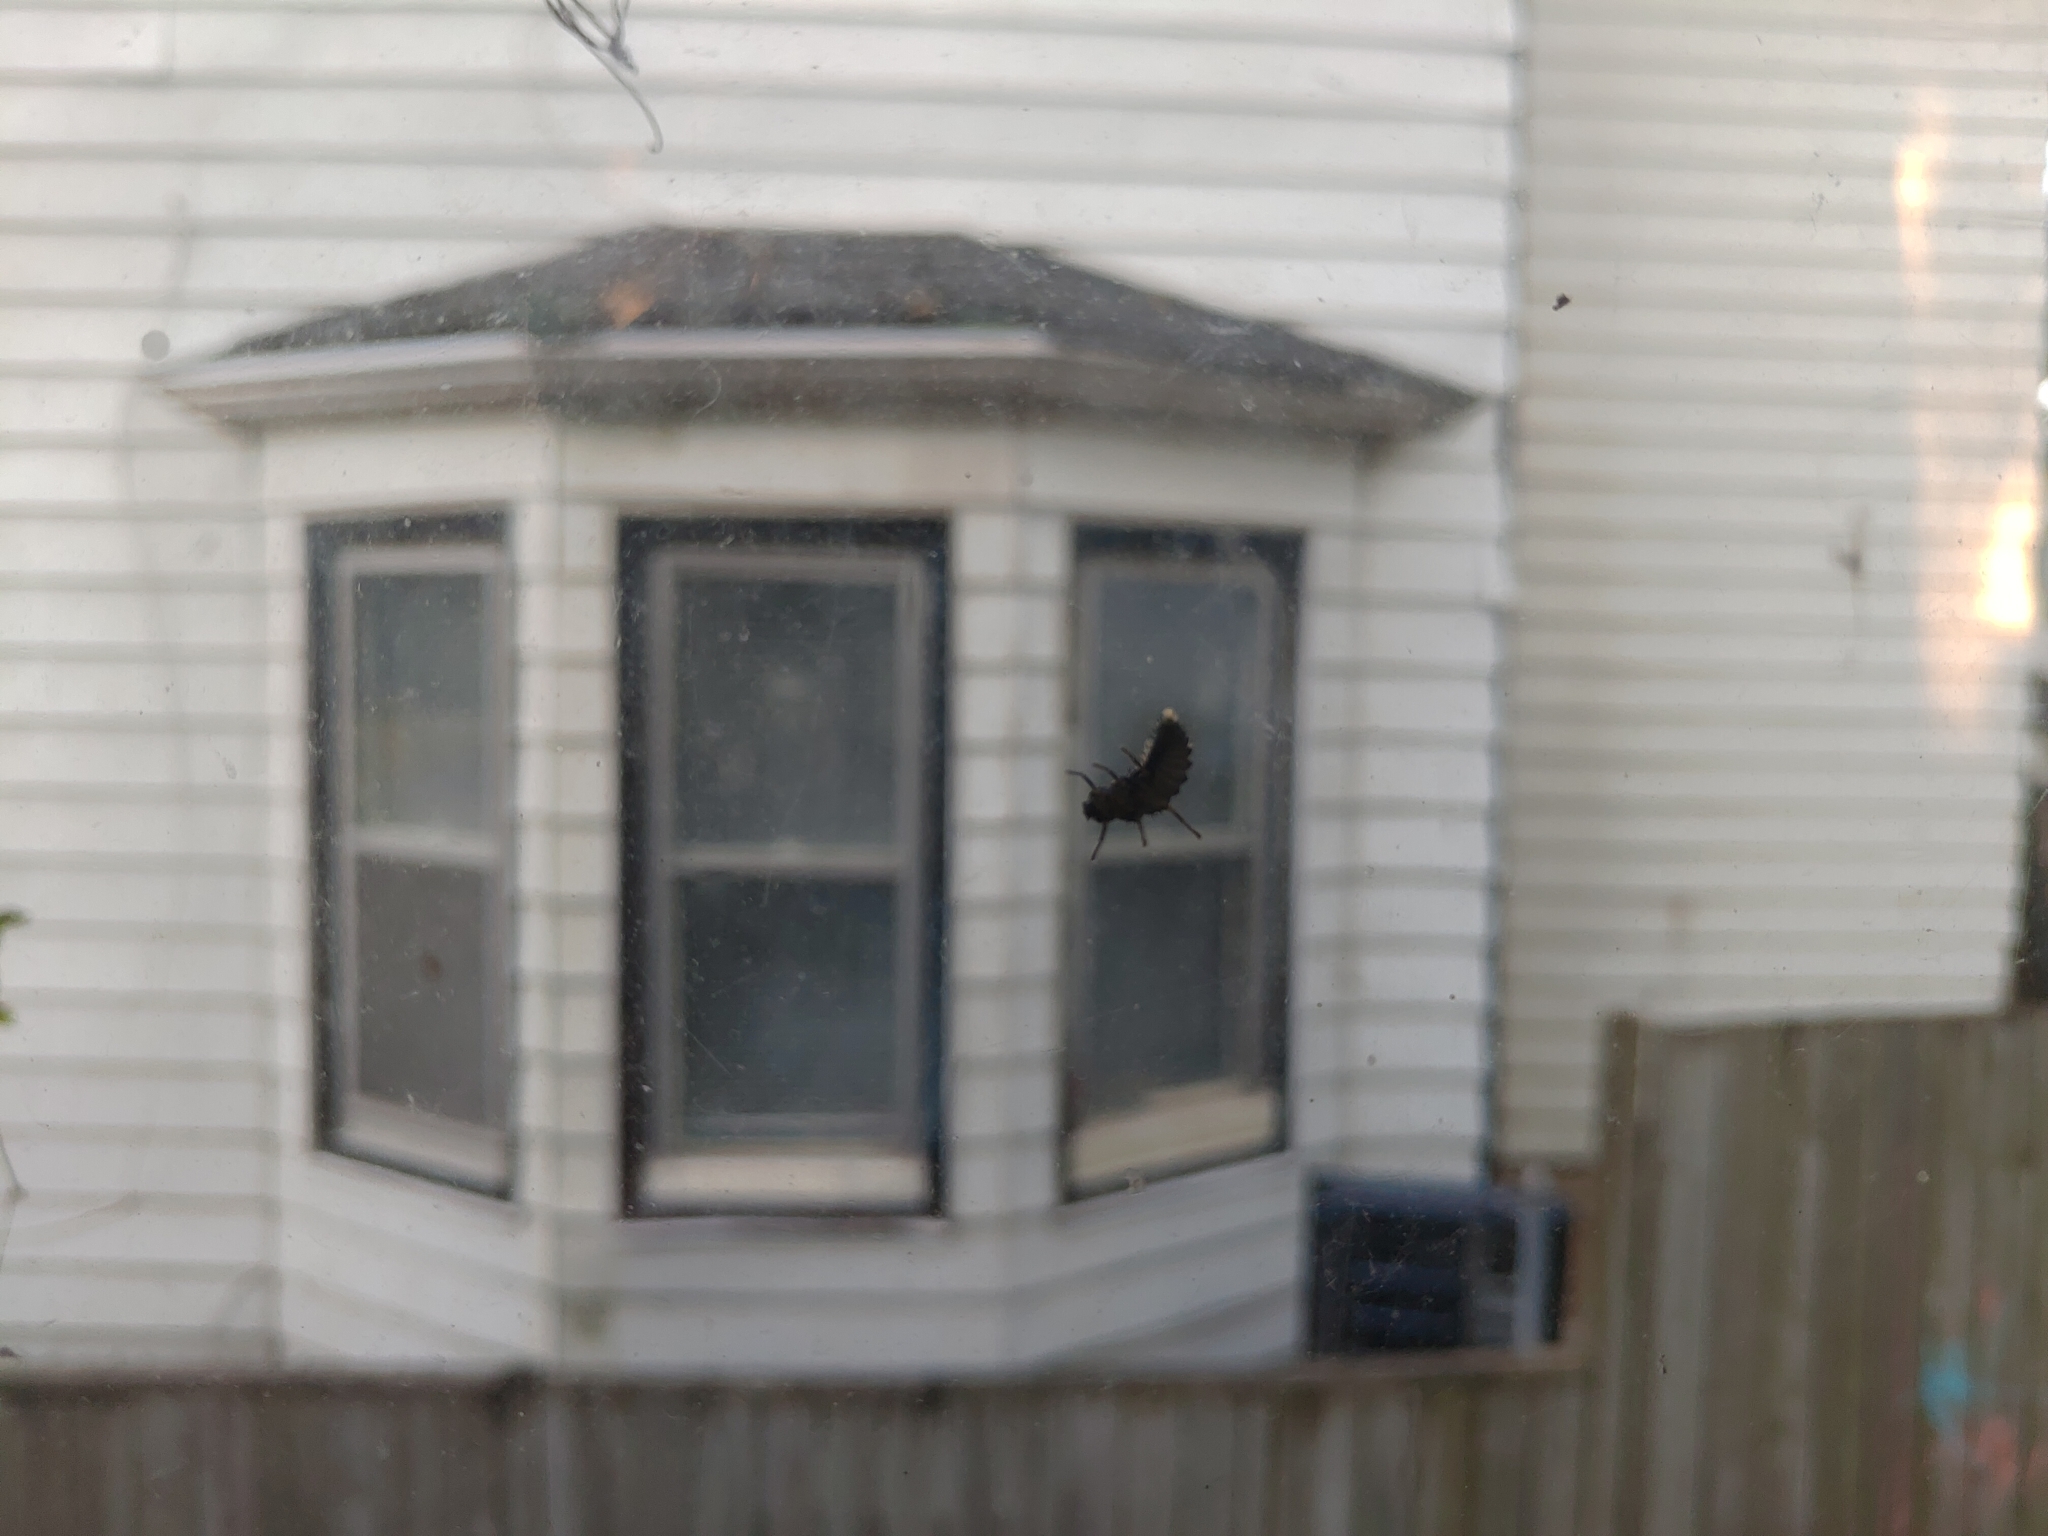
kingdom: Animalia
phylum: Arthropoda
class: Insecta
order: Coleoptera
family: Coccinellidae
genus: Harmonia
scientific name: Harmonia axyridis
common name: Harlequin ladybird
